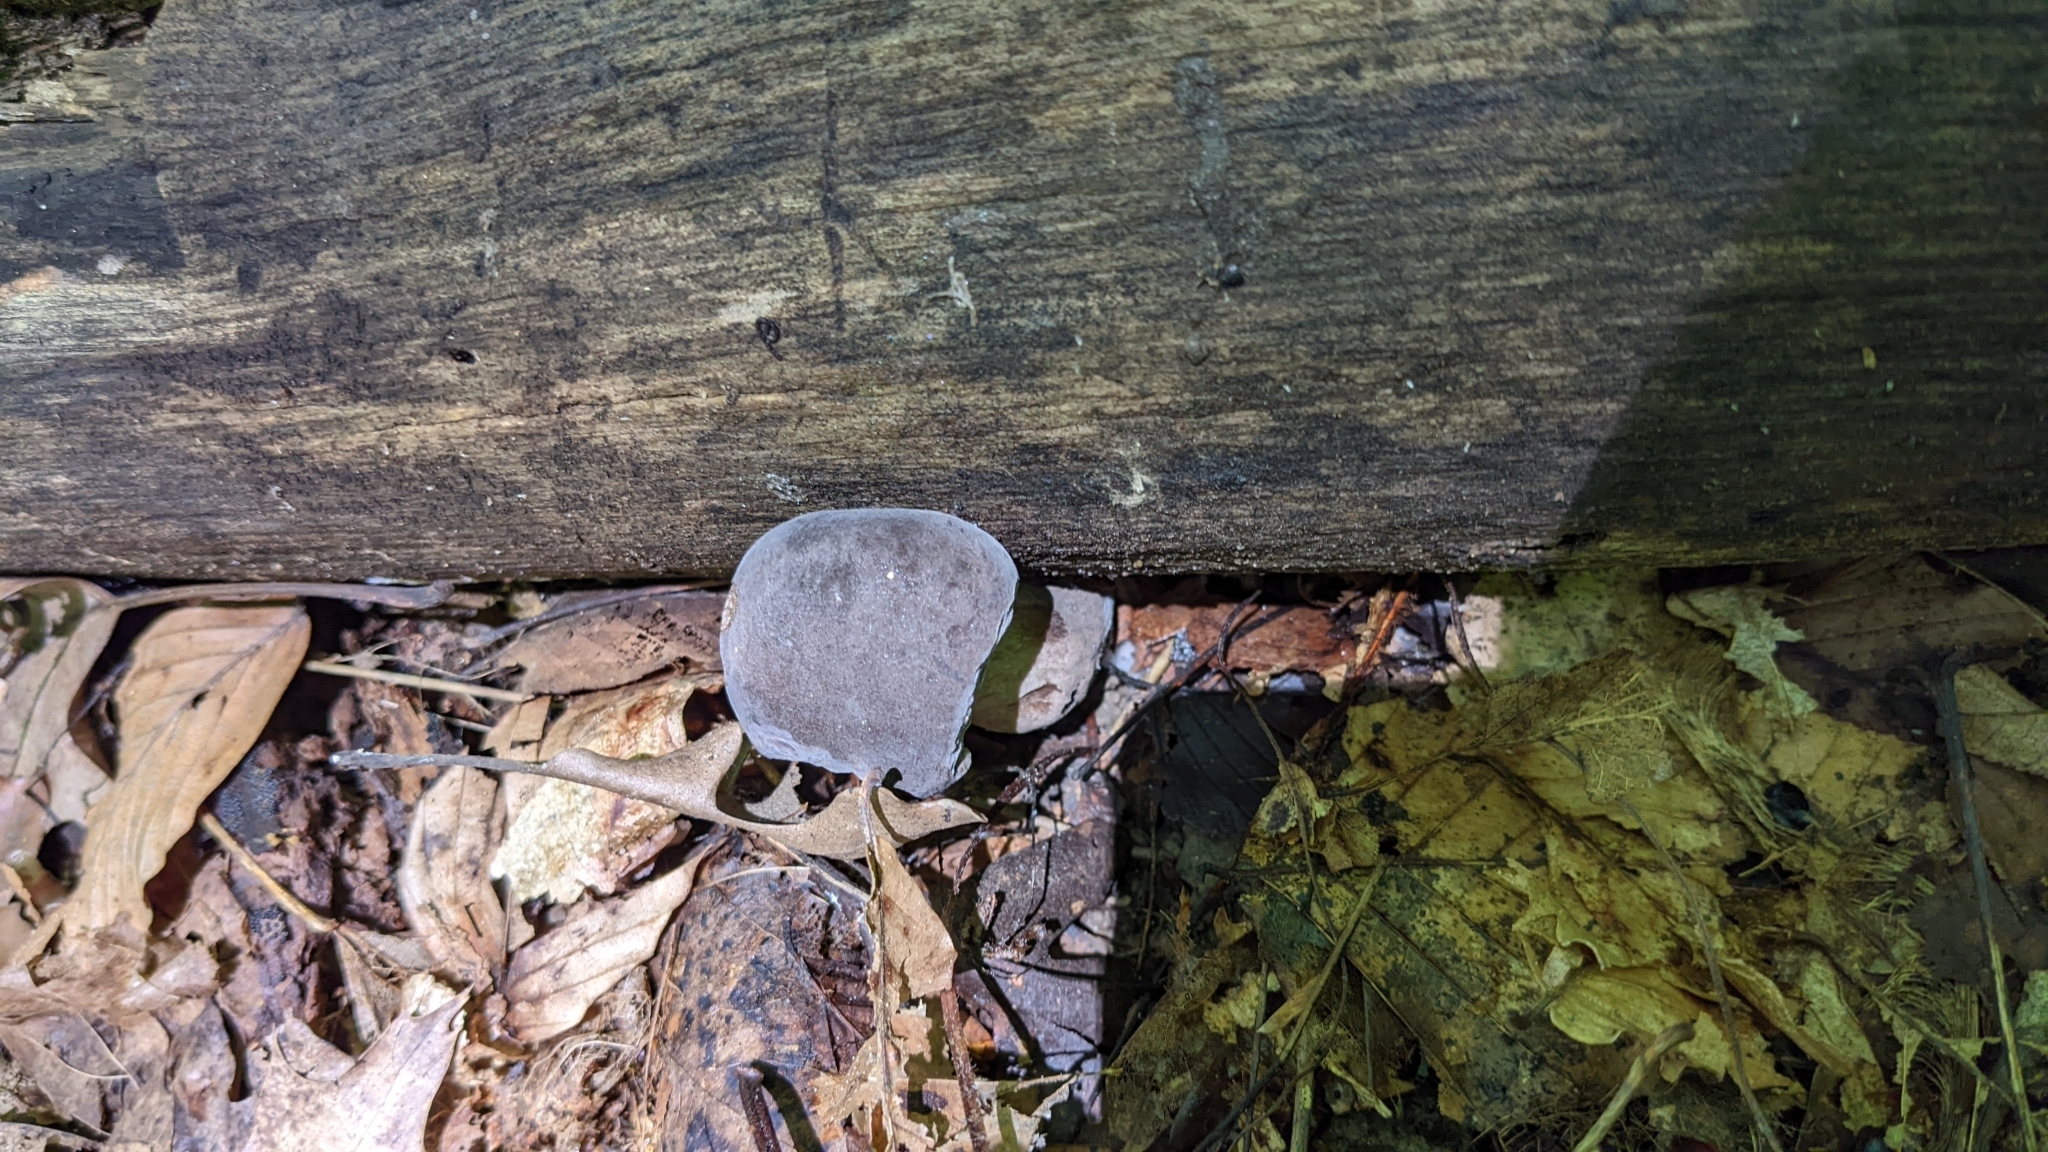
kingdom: Fungi
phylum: Basidiomycota
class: Agaricomycetes
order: Boletales
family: Boletaceae
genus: Tylopilus
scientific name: Tylopilus alboater
